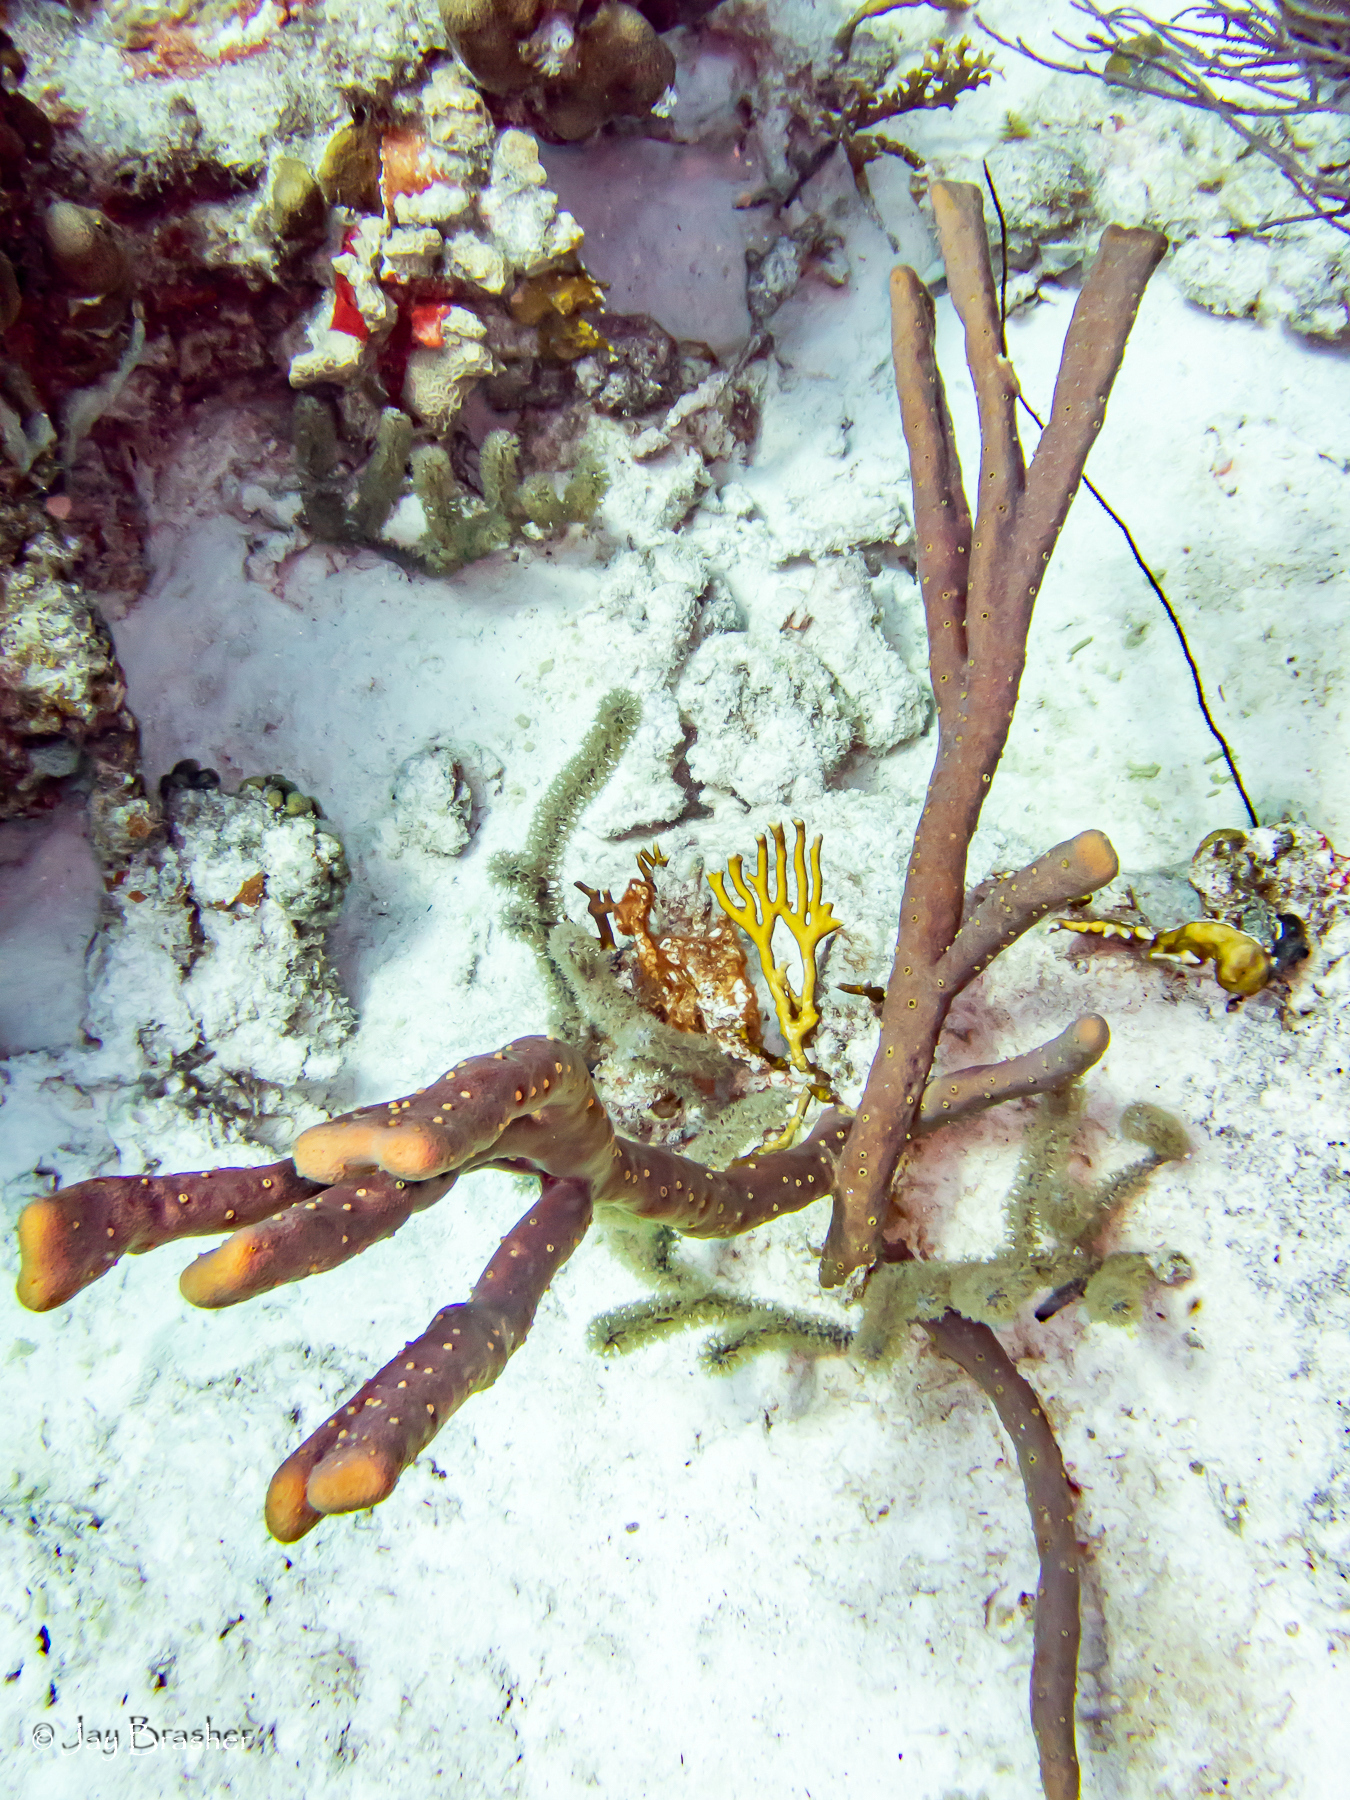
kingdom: Animalia
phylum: Porifera
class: Demospongiae
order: Verongiida
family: Aplysinidae
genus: Aplysina
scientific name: Aplysina cauliformis
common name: Branching candle sponge
